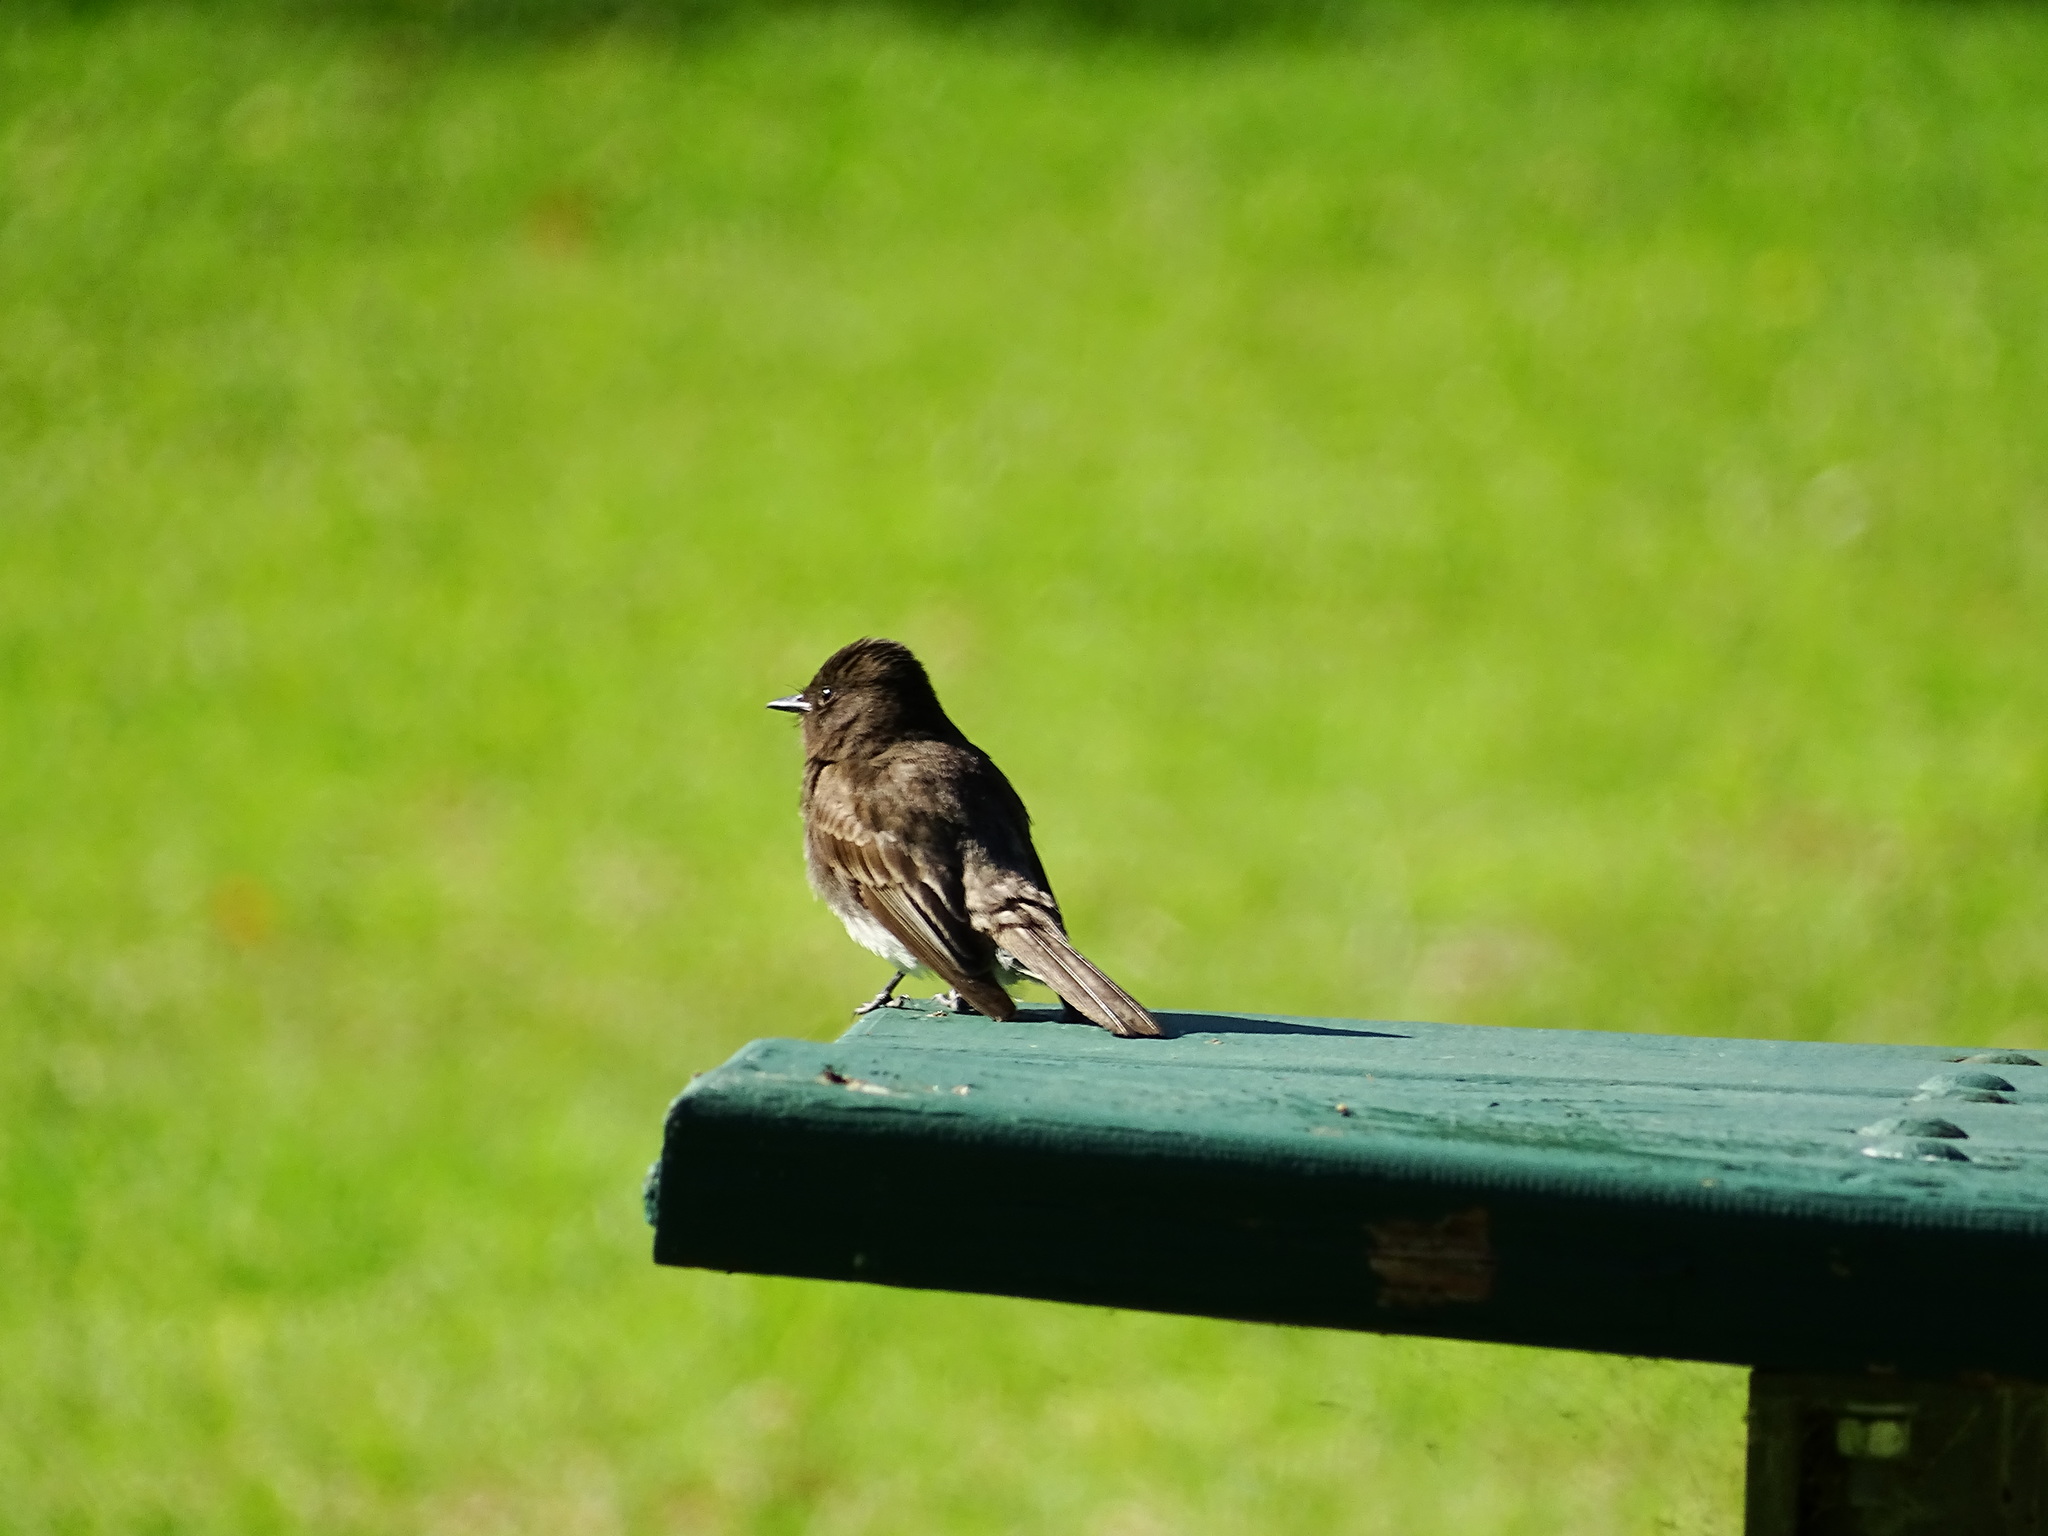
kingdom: Animalia
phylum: Chordata
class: Aves
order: Passeriformes
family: Tyrannidae
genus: Sayornis
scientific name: Sayornis nigricans
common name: Black phoebe
